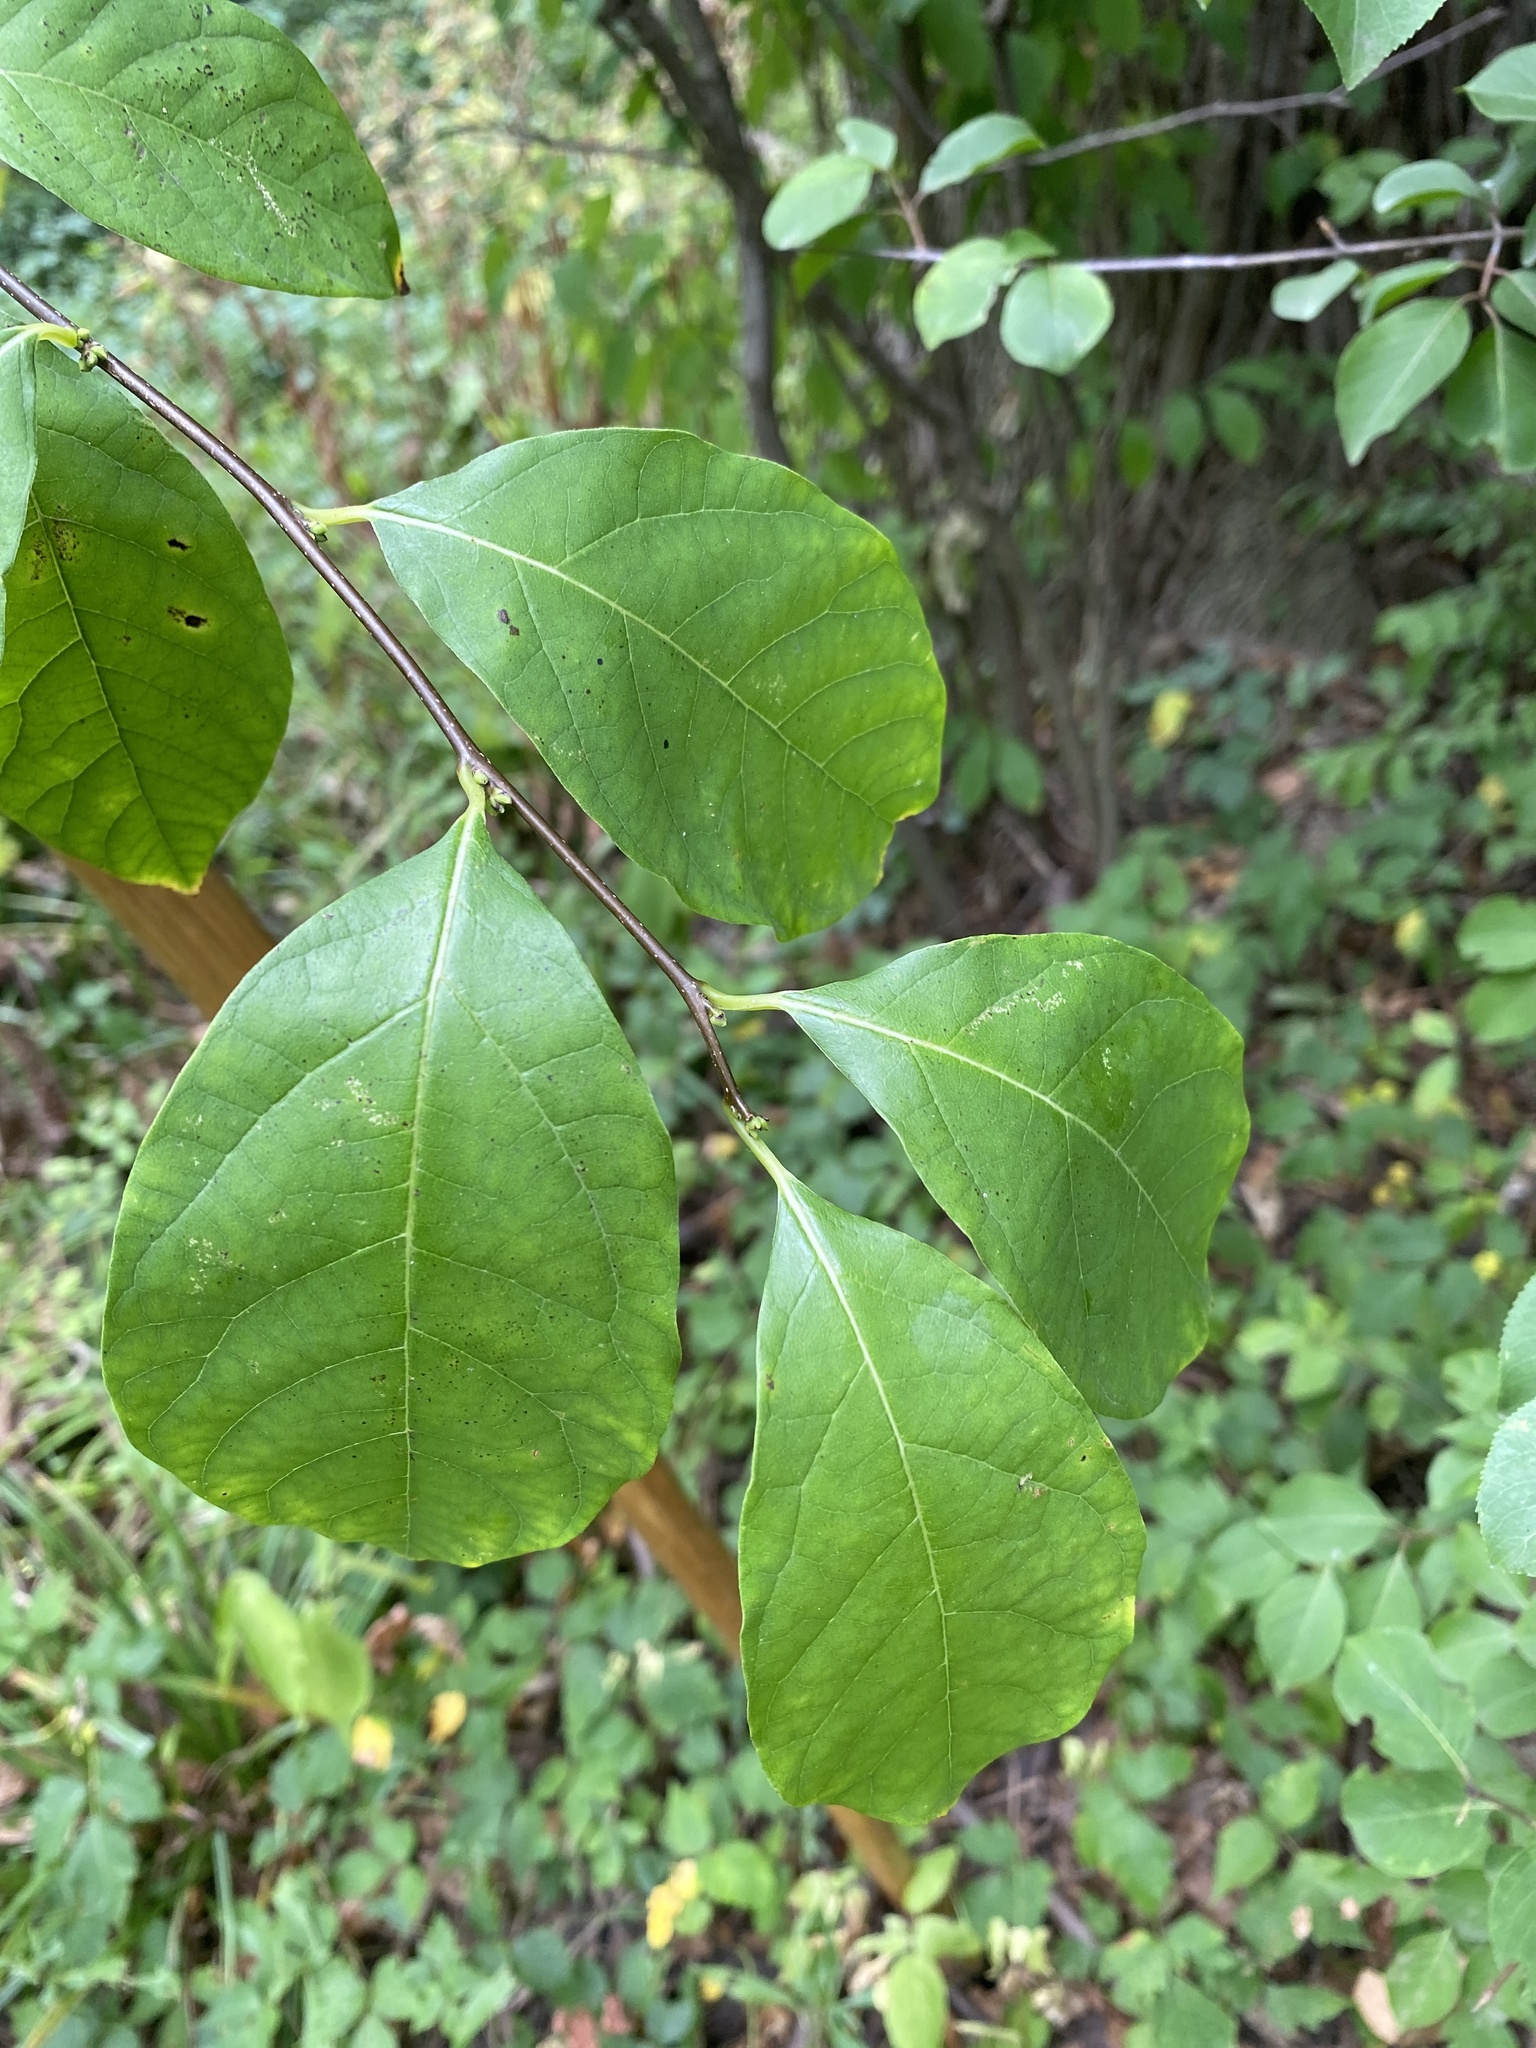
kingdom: Plantae
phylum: Tracheophyta
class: Magnoliopsida
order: Laurales
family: Lauraceae
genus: Lindera
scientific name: Lindera benzoin
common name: Spicebush
